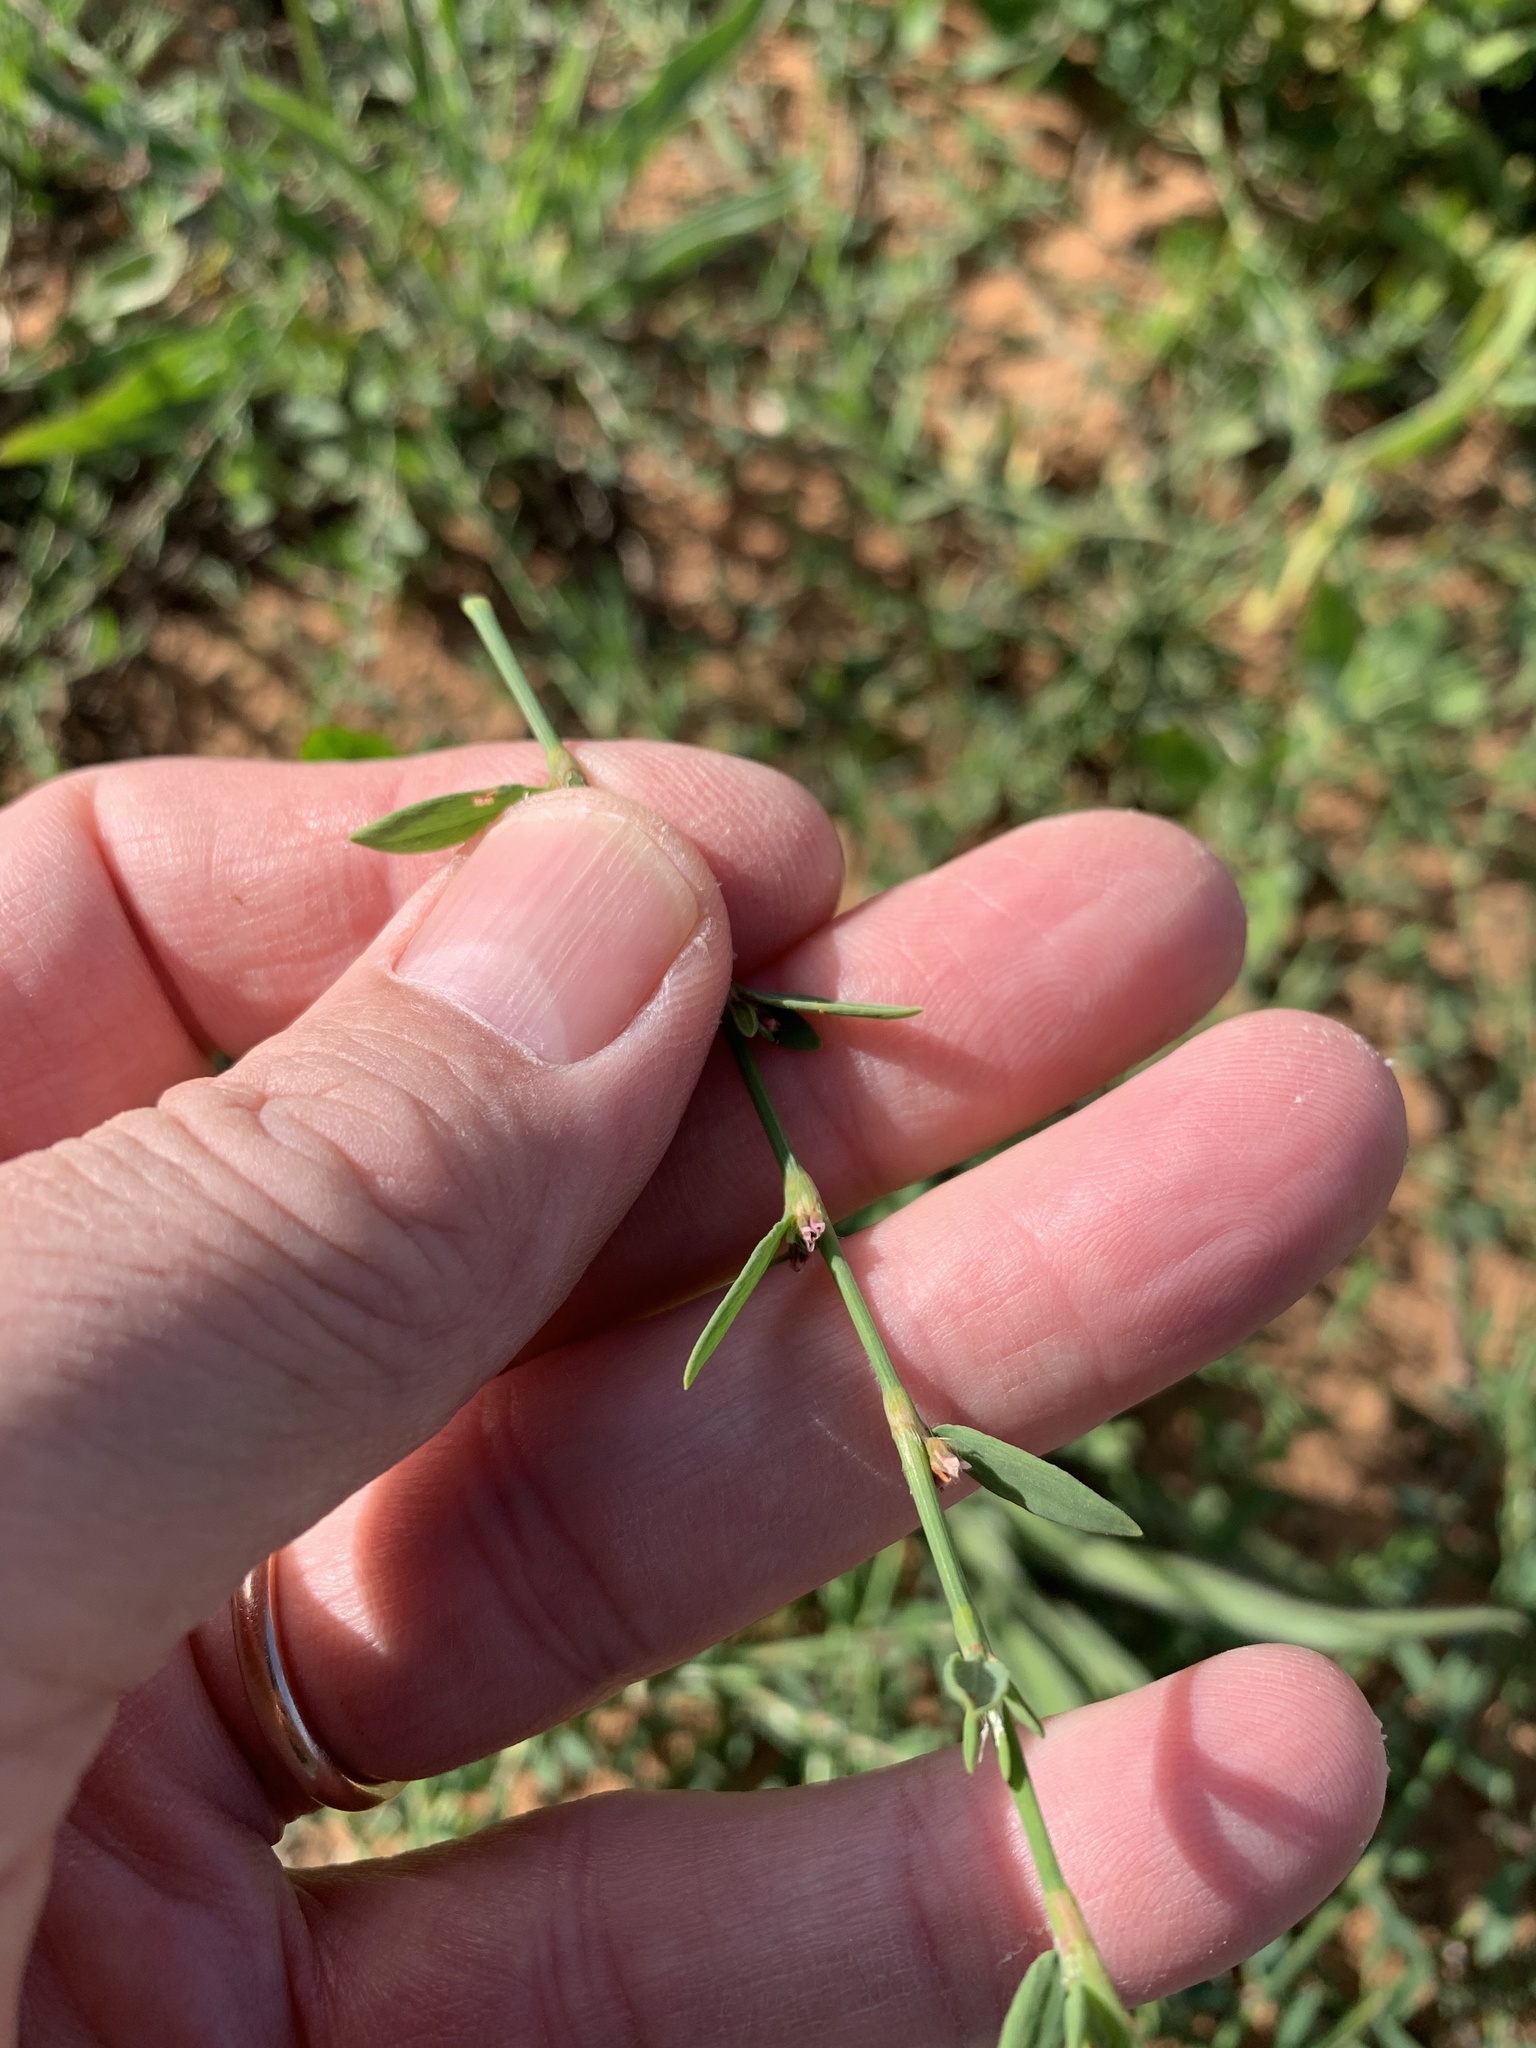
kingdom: Plantae
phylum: Tracheophyta
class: Magnoliopsida
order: Caryophyllales
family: Polygonaceae
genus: Polygonum
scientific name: Polygonum aviculare
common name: Prostrate knotweed
